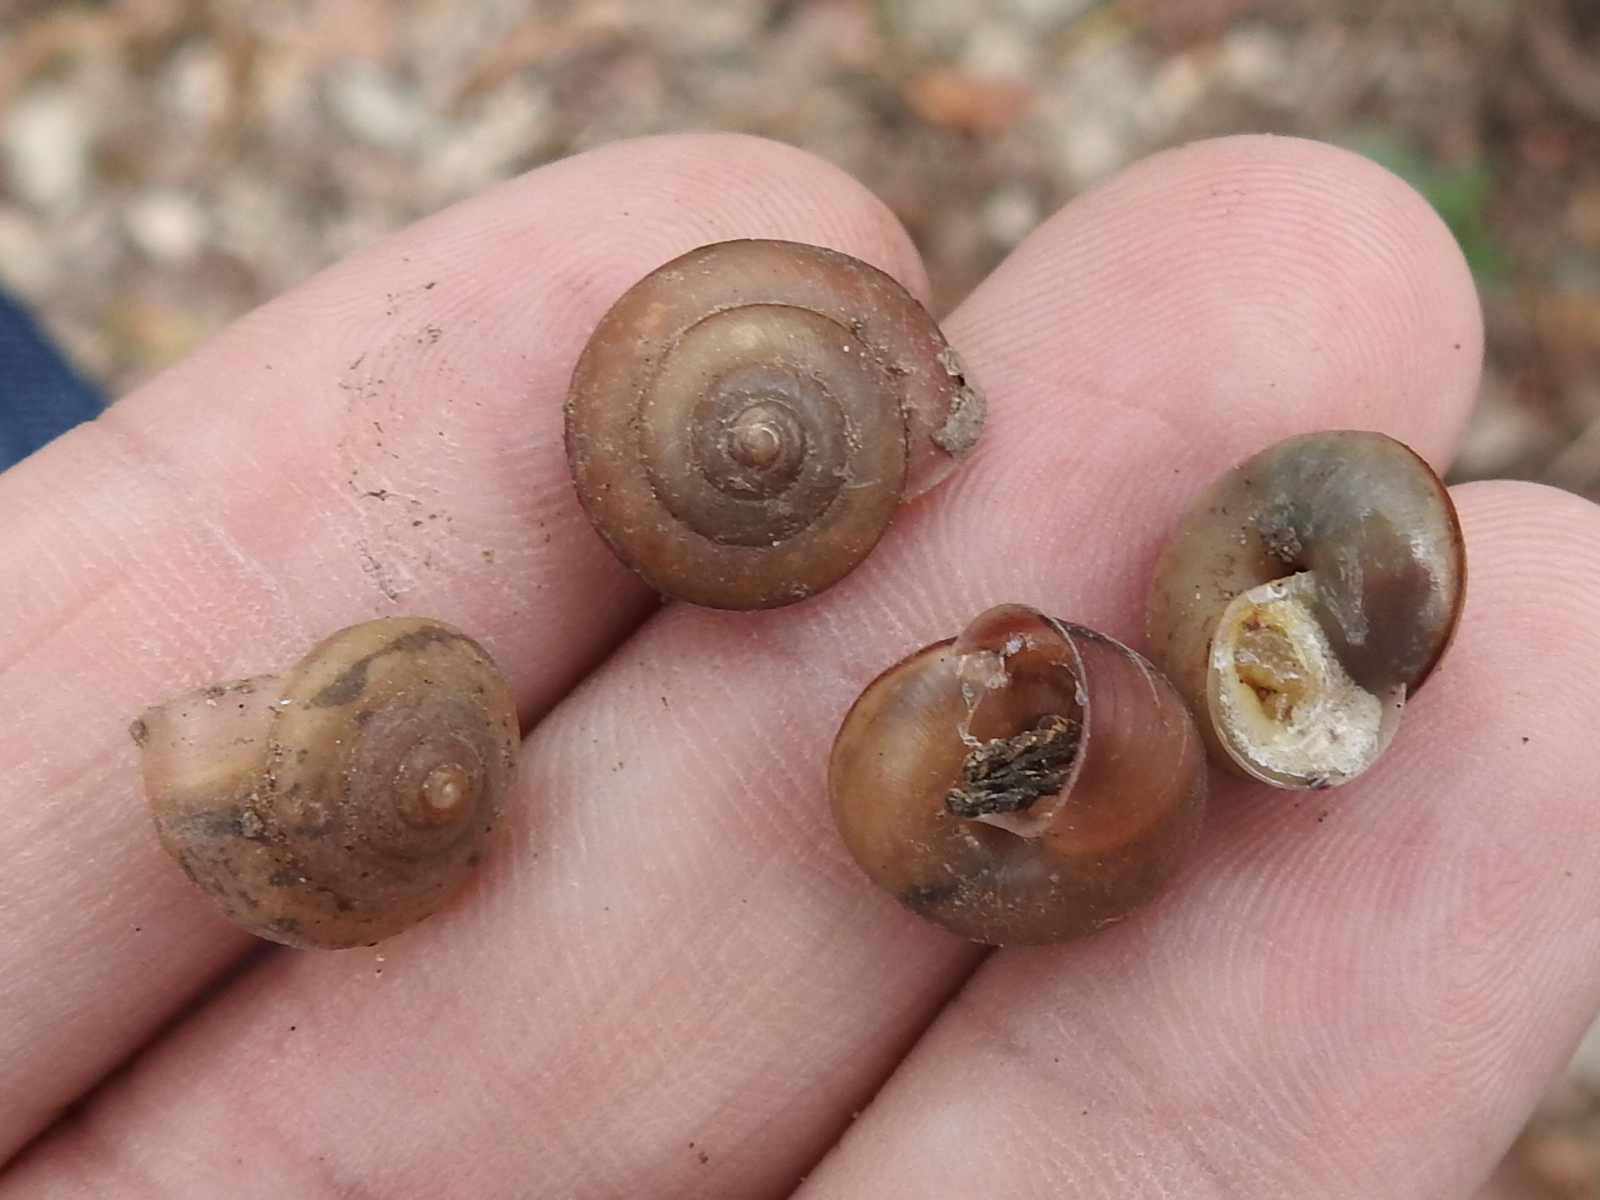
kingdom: Animalia
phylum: Mollusca
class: Gastropoda
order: Stylommatophora
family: Camaenidae
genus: Bradybaena
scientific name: Bradybaena similaris
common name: Asian trampsnail
